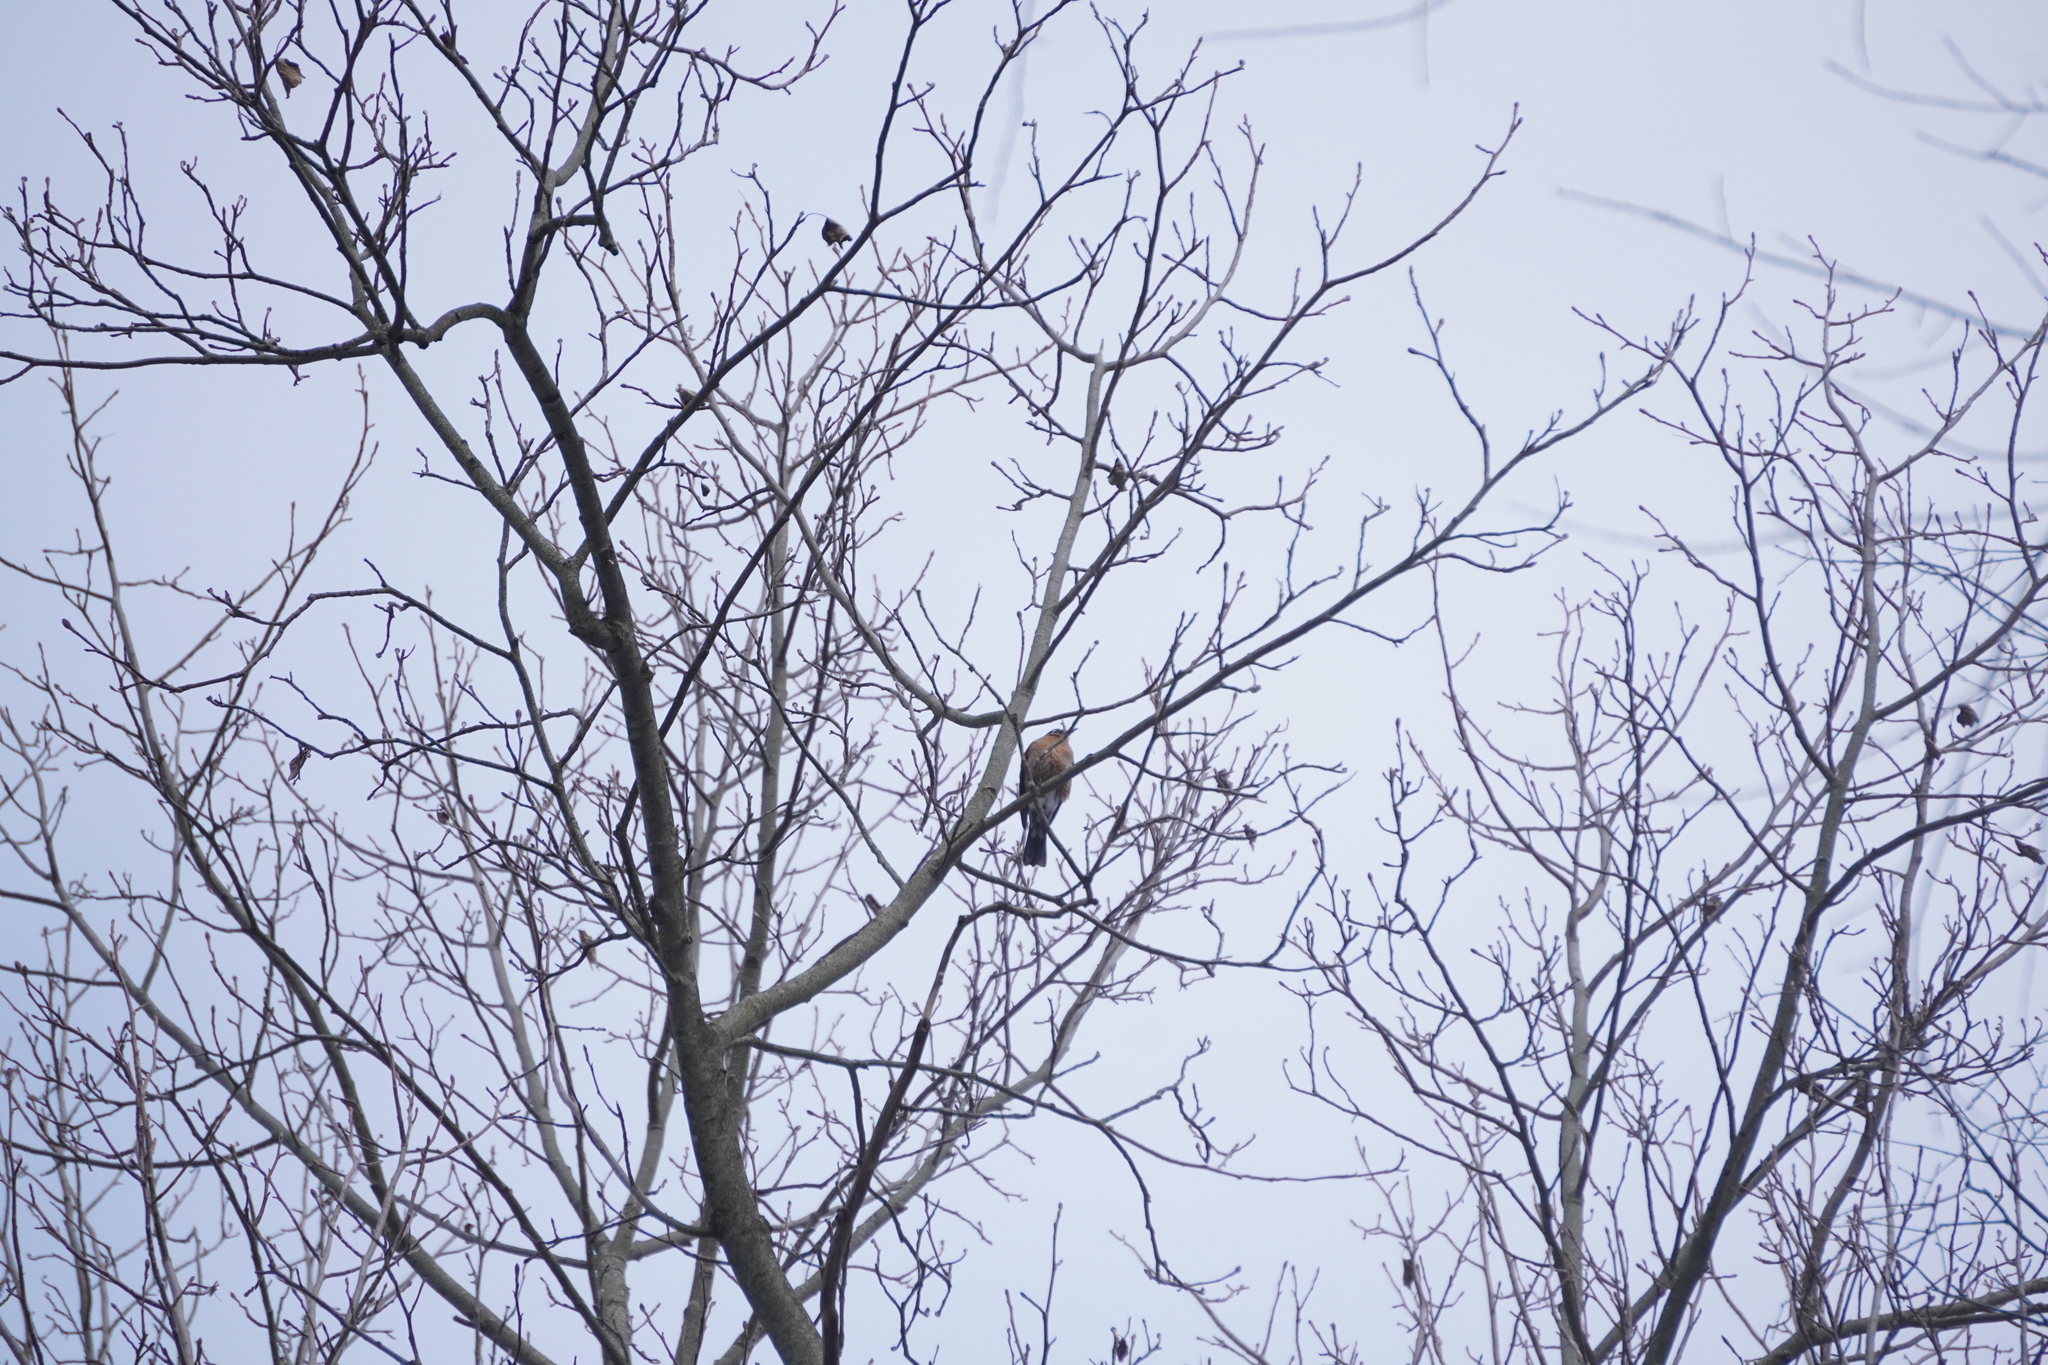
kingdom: Animalia
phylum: Chordata
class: Aves
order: Passeriformes
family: Turdidae
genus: Turdus
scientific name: Turdus migratorius
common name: American robin
